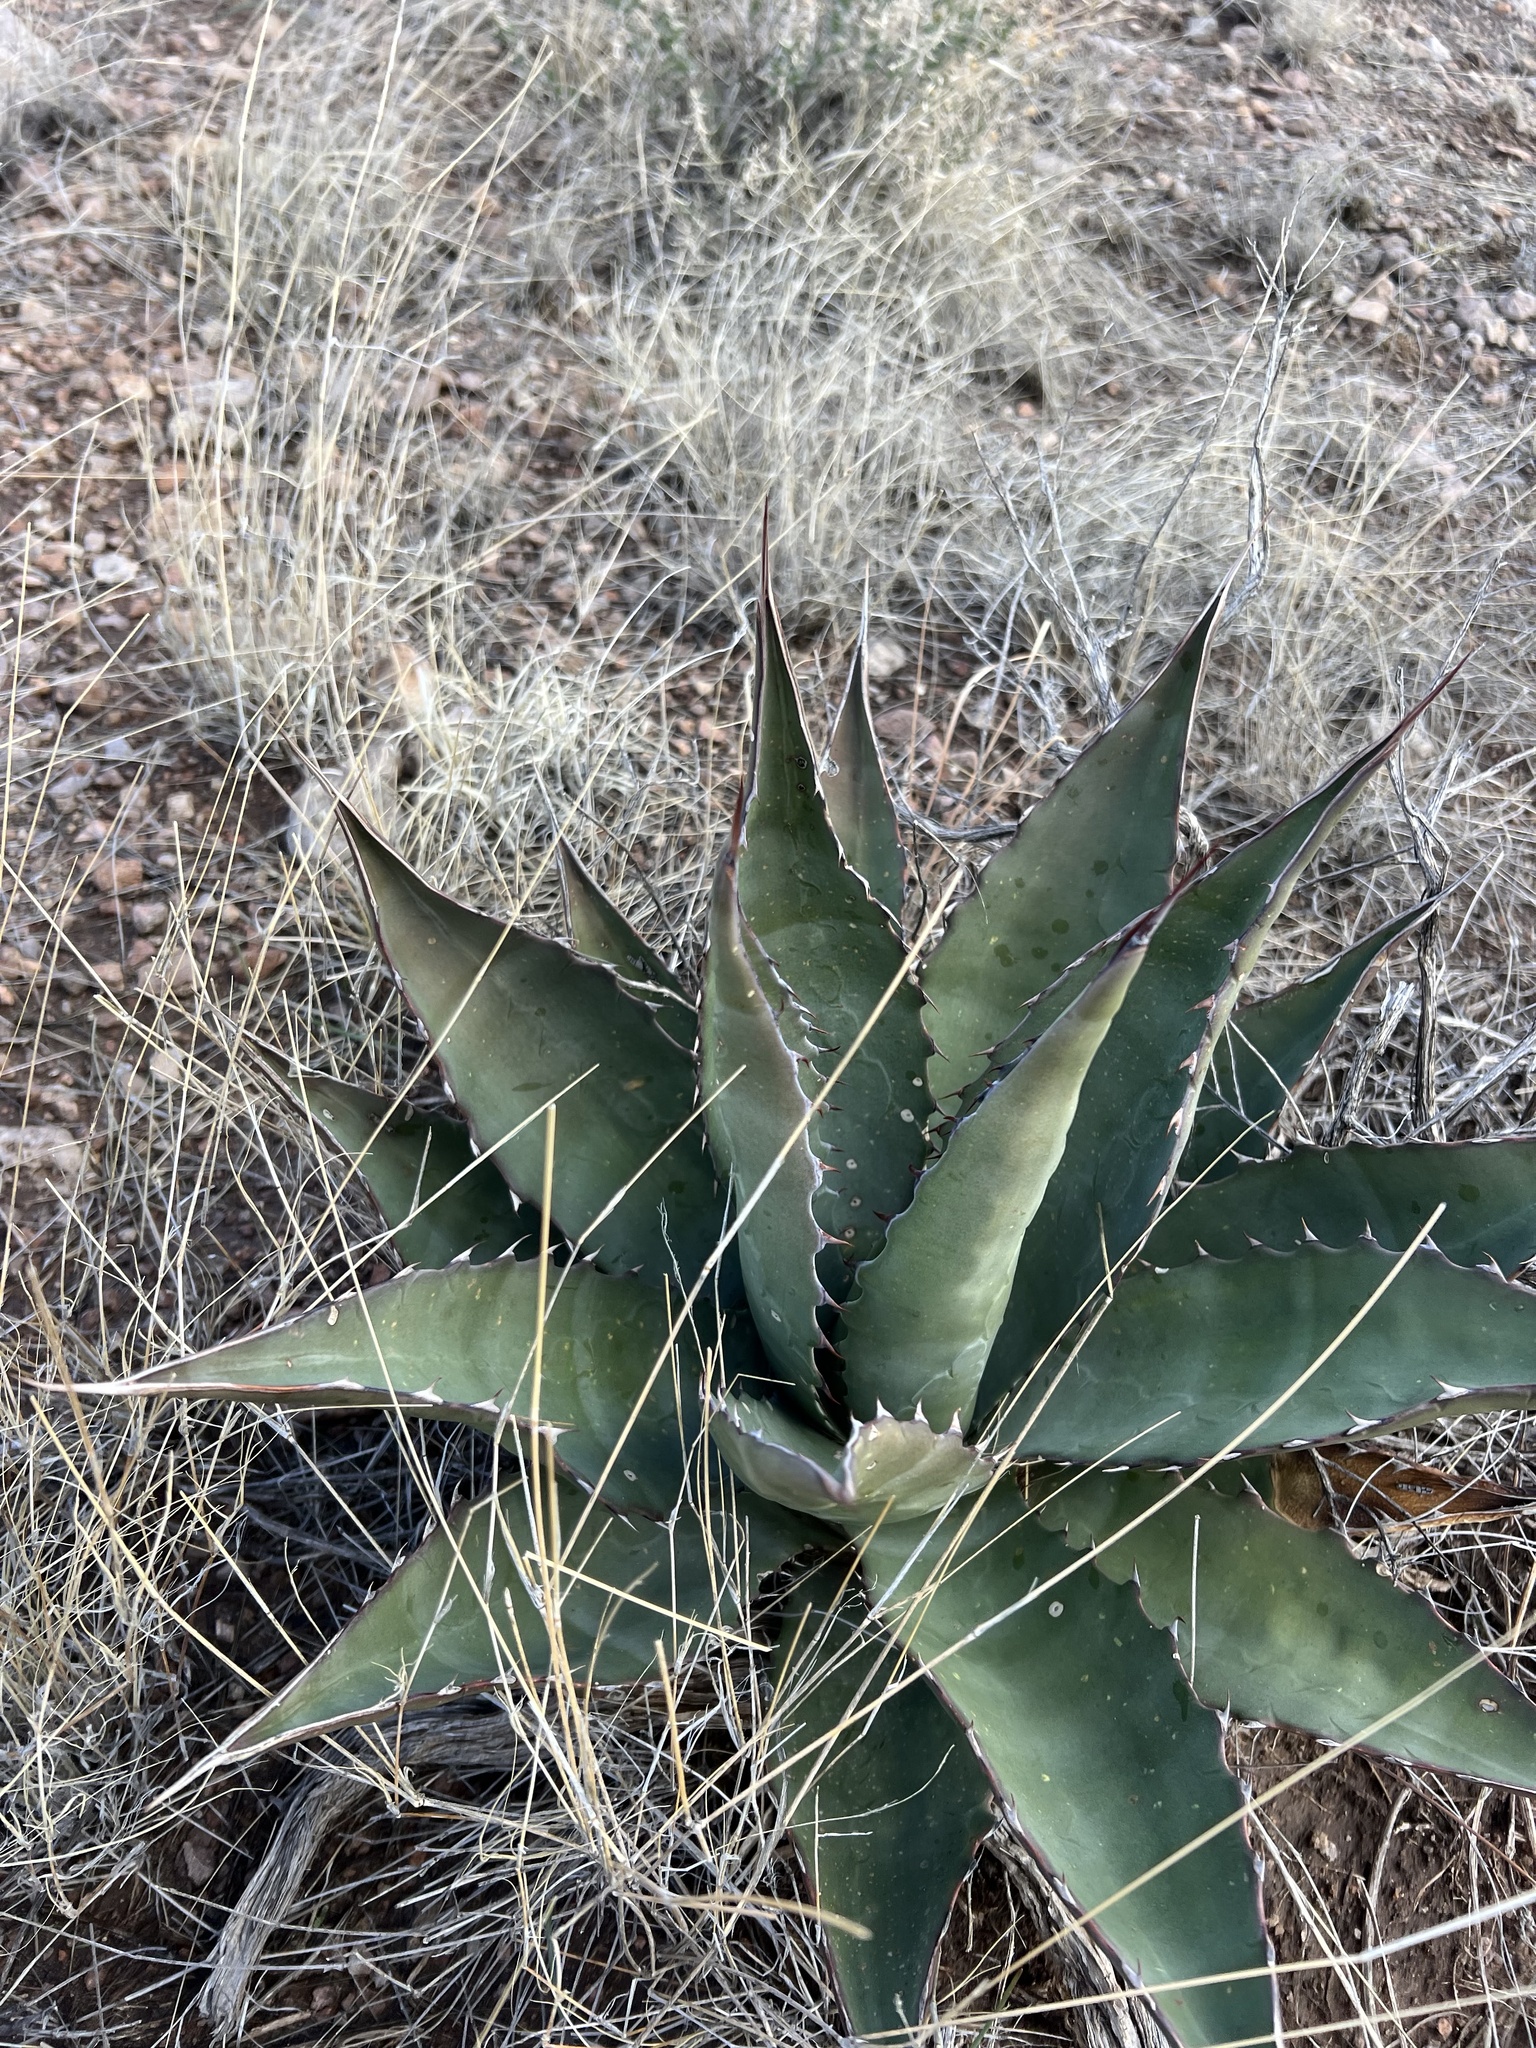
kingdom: Plantae
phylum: Tracheophyta
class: Liliopsida
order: Asparagales
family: Asparagaceae
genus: Agave
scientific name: Agave palmeri
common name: Palmer agave
